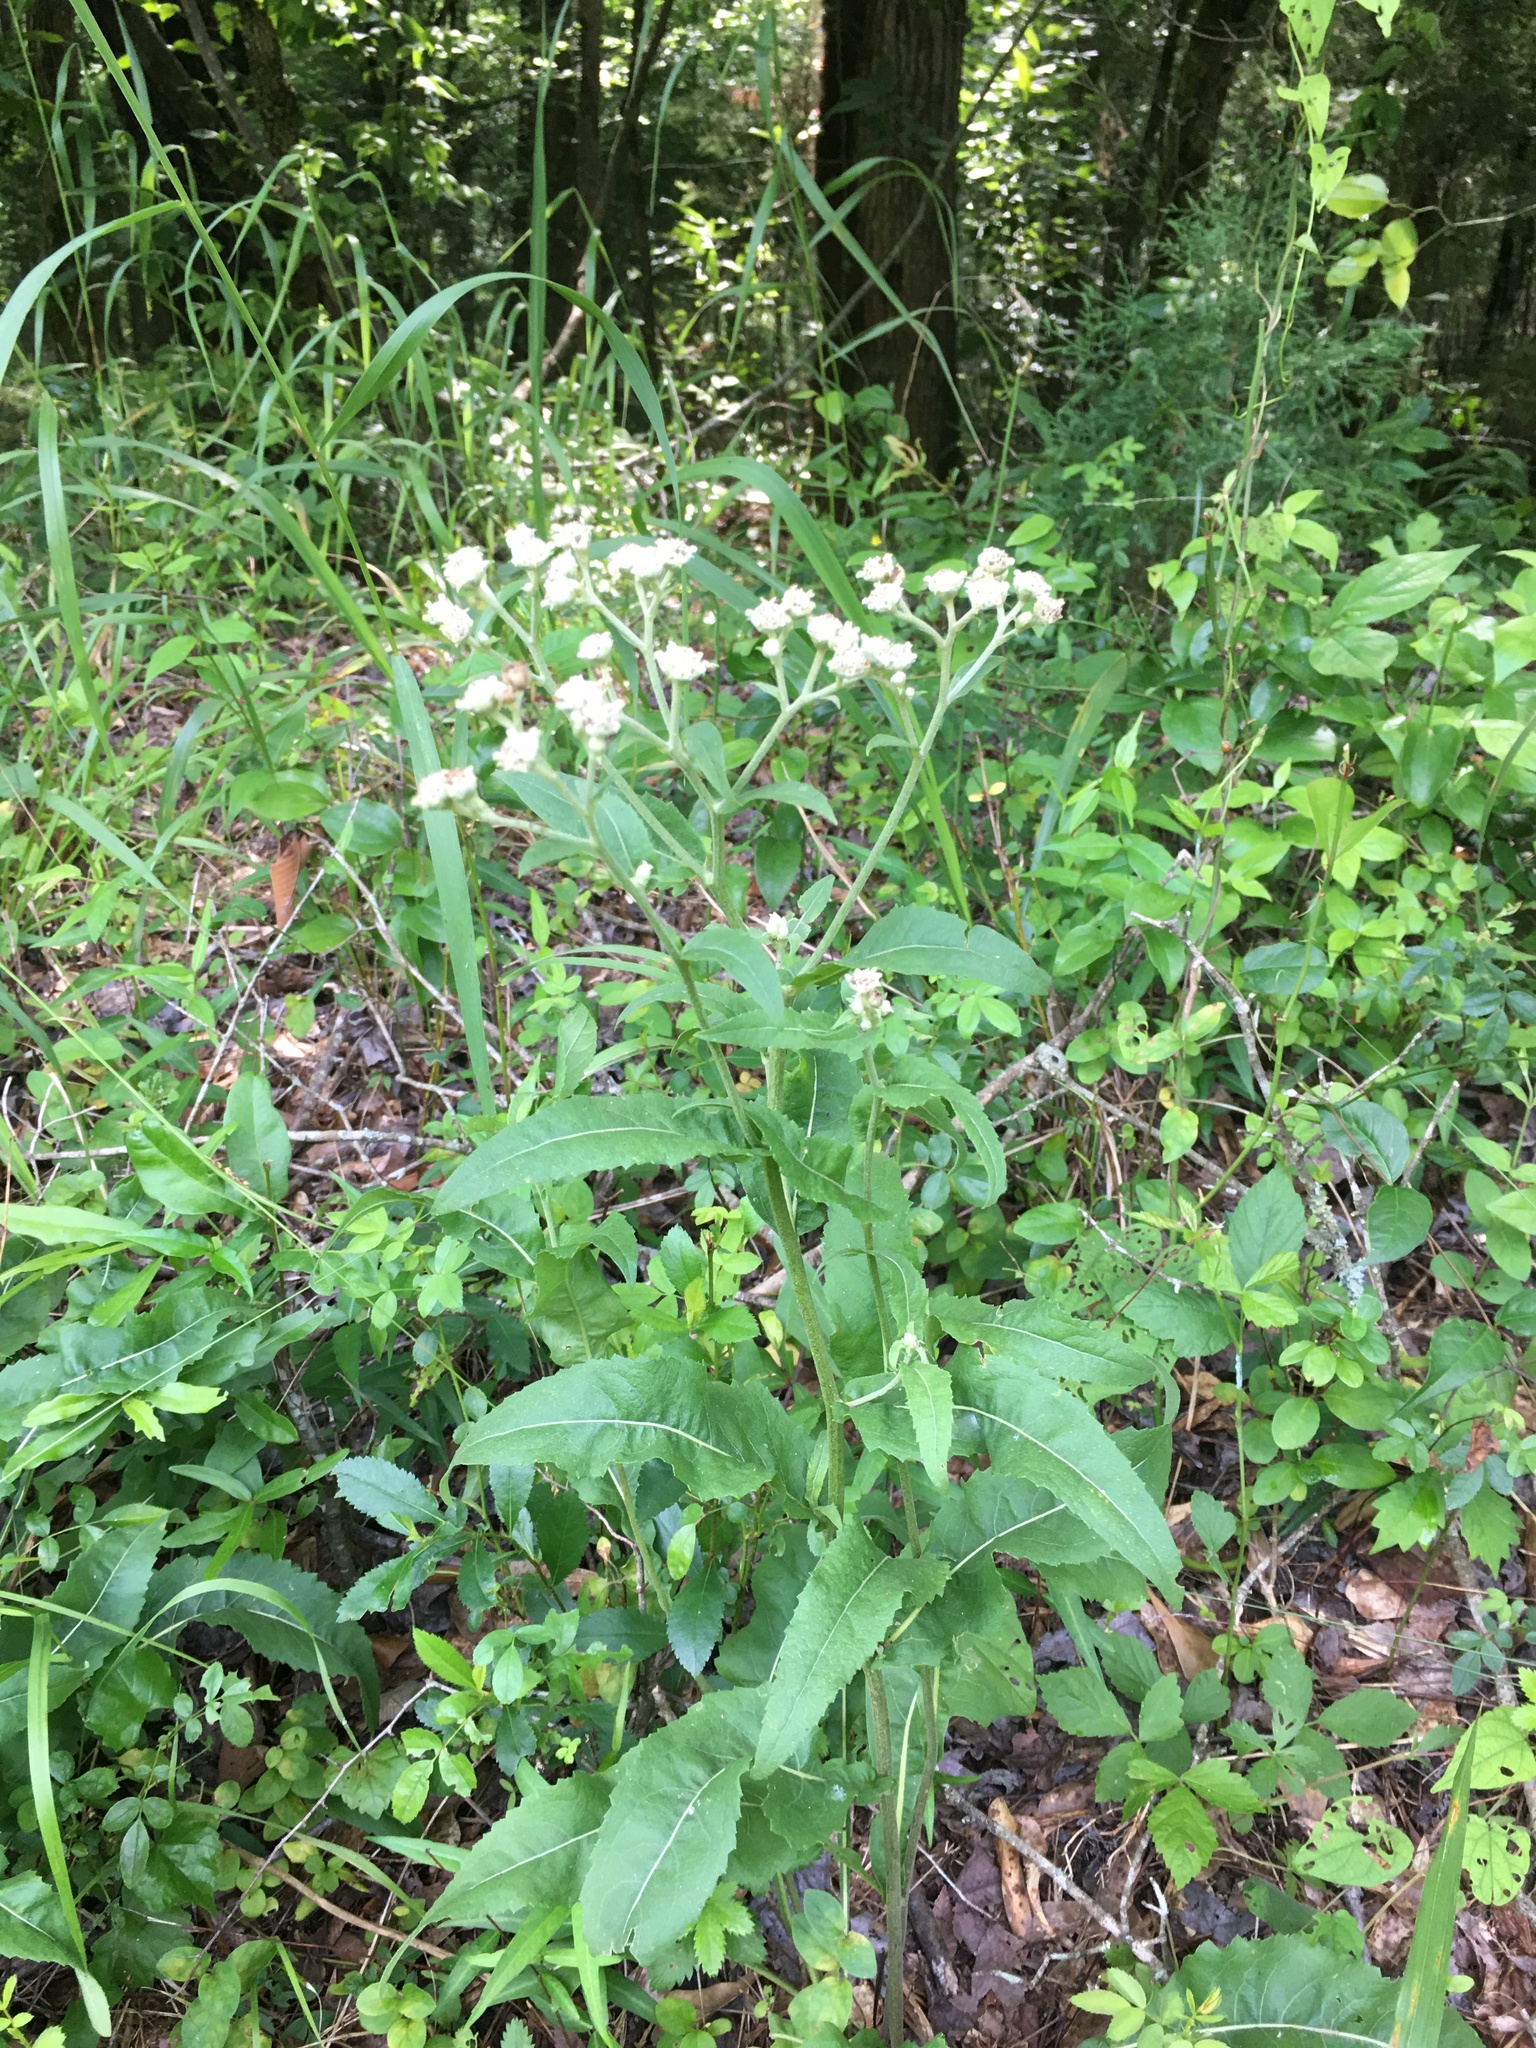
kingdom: Plantae
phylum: Tracheophyta
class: Magnoliopsida
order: Asterales
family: Asteraceae
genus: Parthenium
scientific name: Parthenium integrifolium
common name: American feverfew
